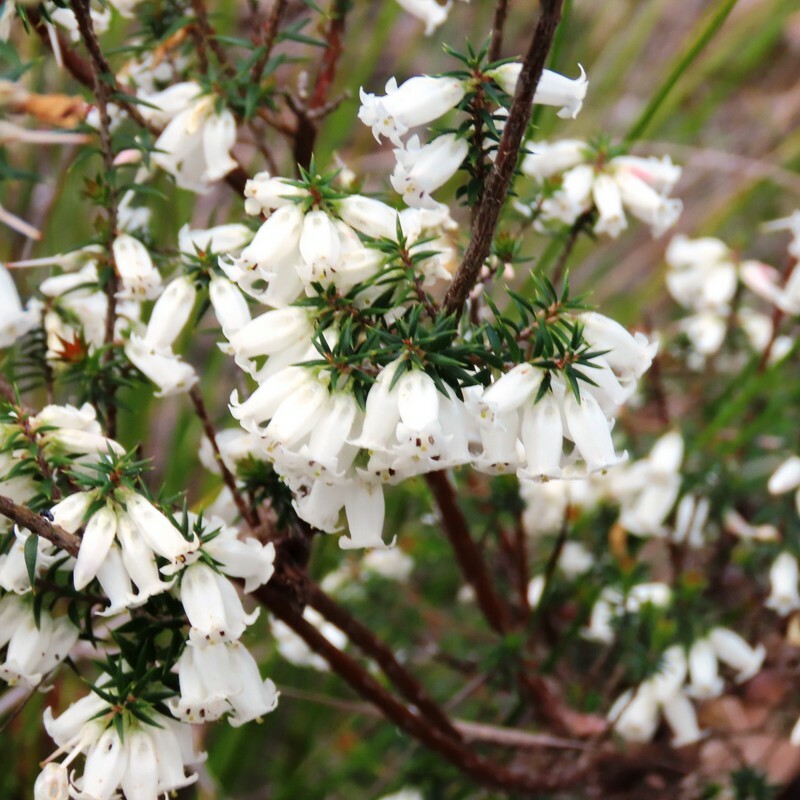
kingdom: Plantae
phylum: Tracheophyta
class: Magnoliopsida
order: Ericales
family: Ericaceae
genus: Epacris
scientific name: Epacris impressa
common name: Common-heath
